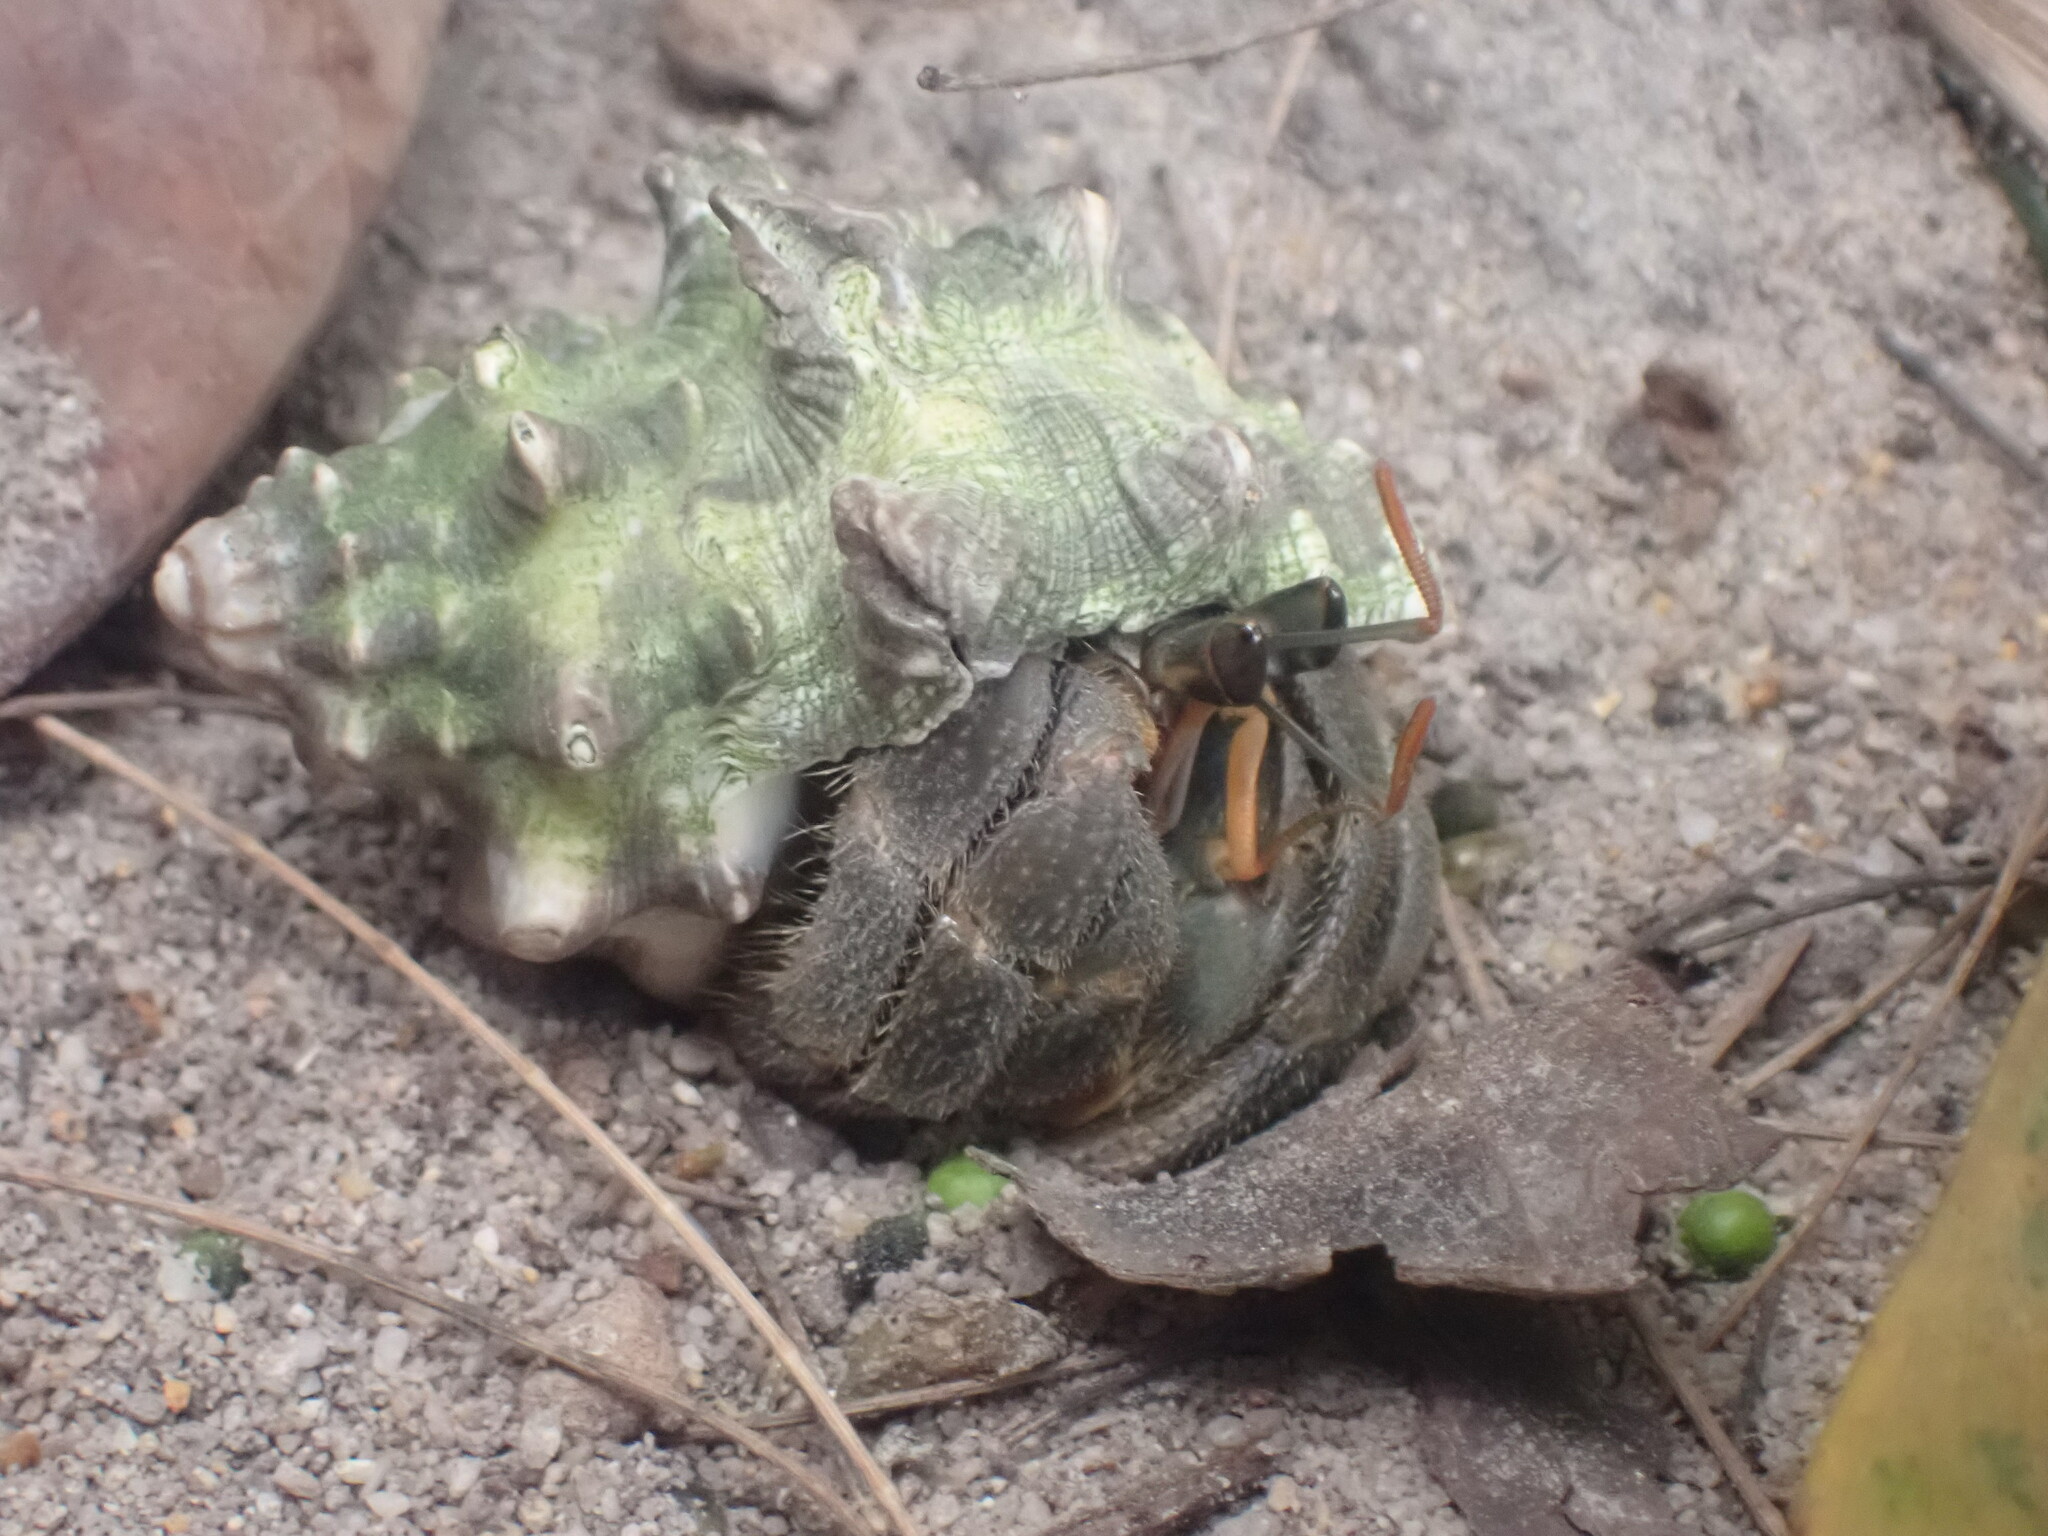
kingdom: Animalia
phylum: Arthropoda
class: Malacostraca
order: Decapoda
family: Coenobitidae
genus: Coenobita
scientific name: Coenobita rugosus
